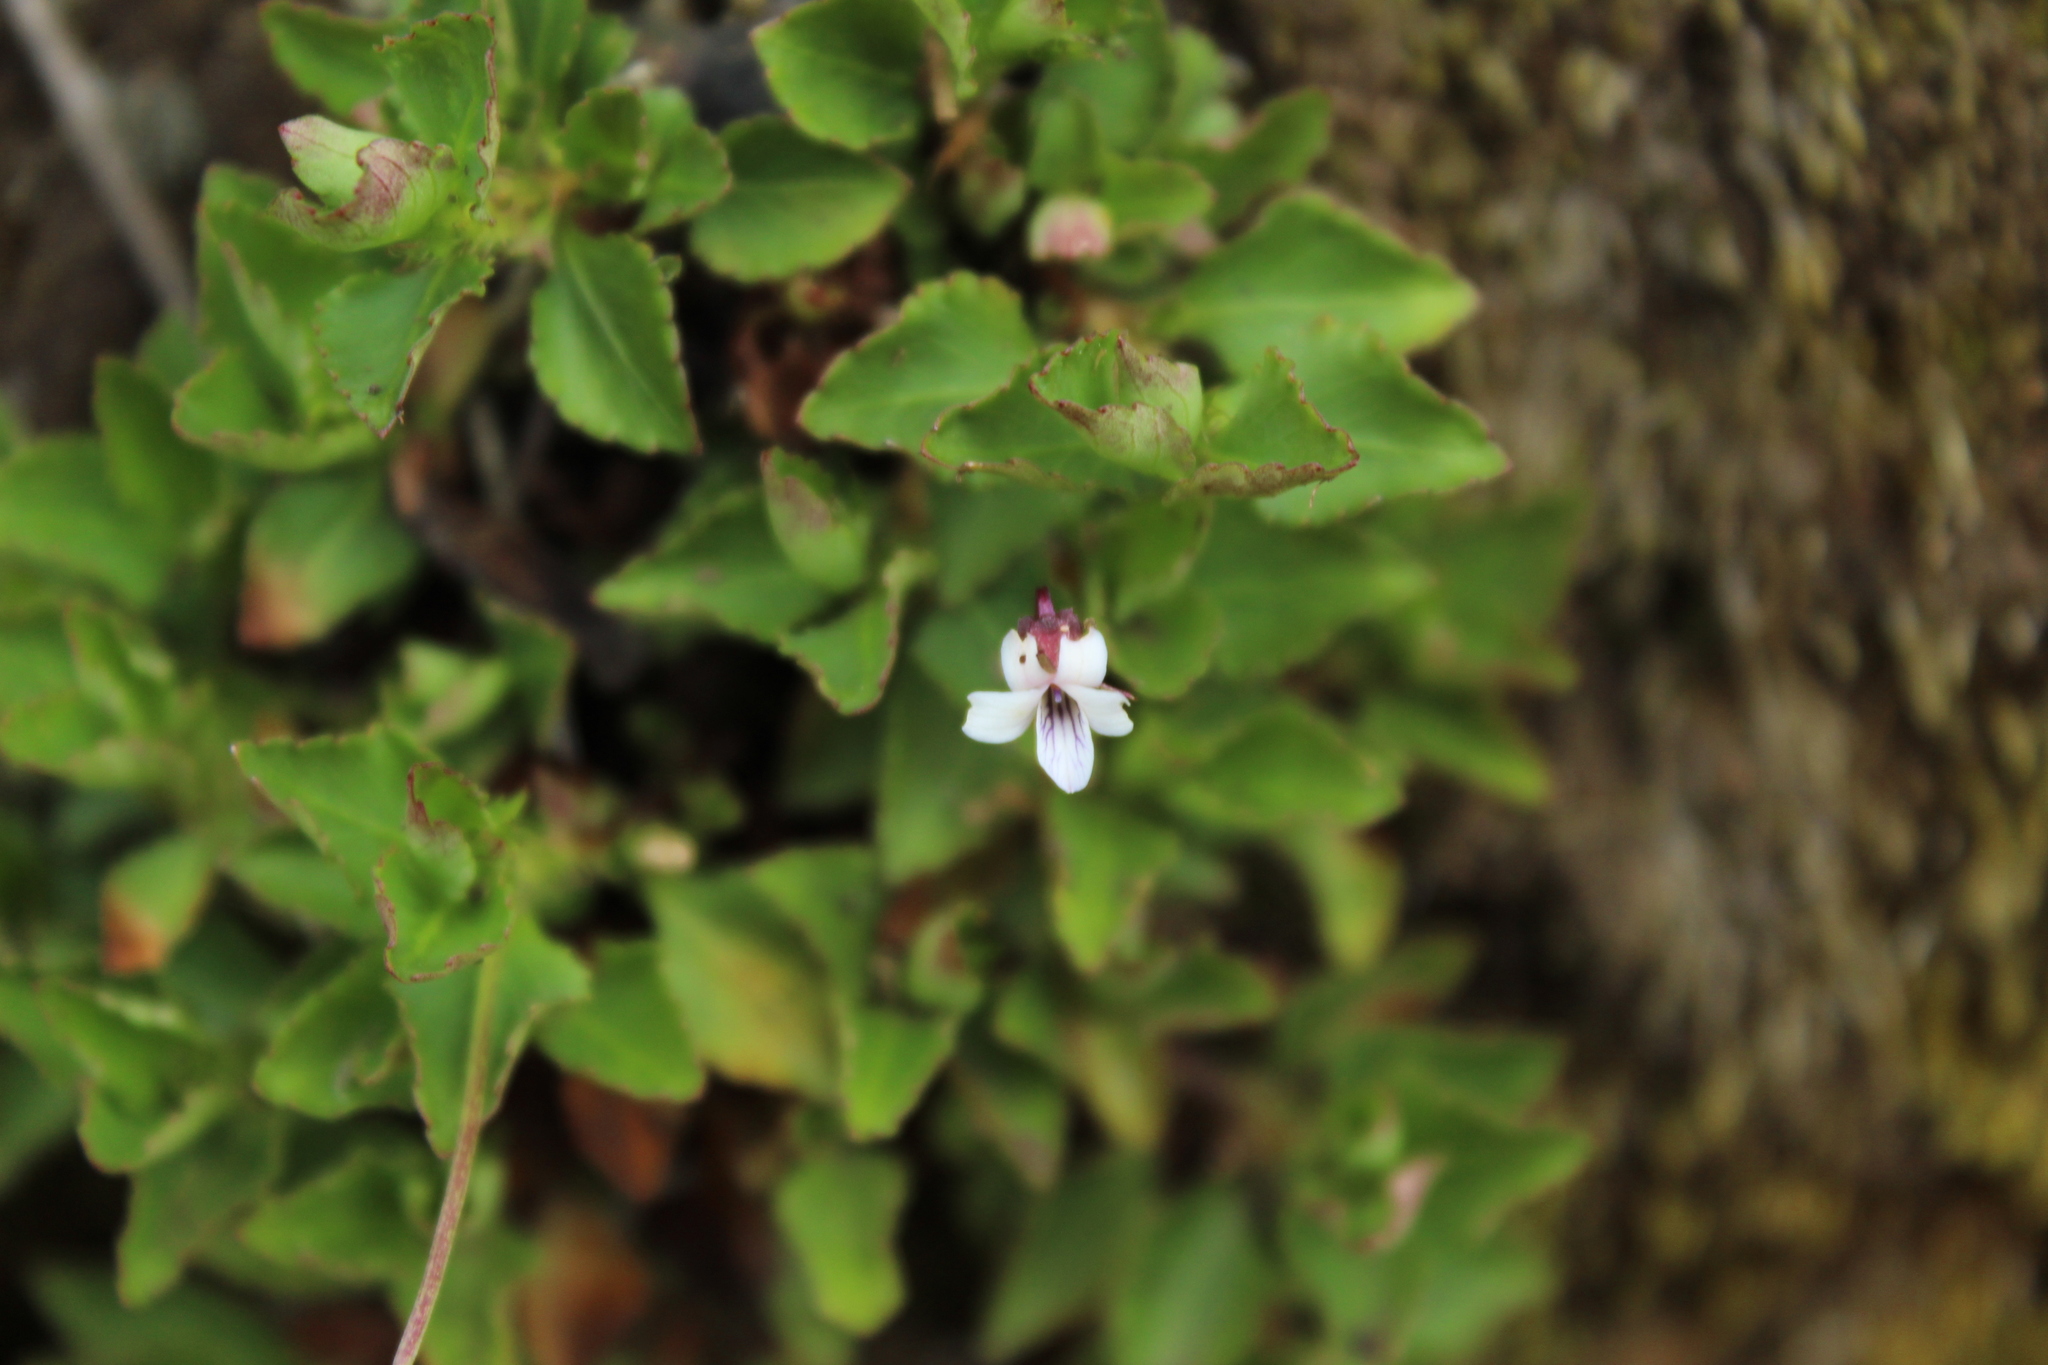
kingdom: Plantae
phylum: Tracheophyta
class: Magnoliopsida
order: Malpighiales
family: Violaceae
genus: Viola
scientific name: Viola veronicifolia
